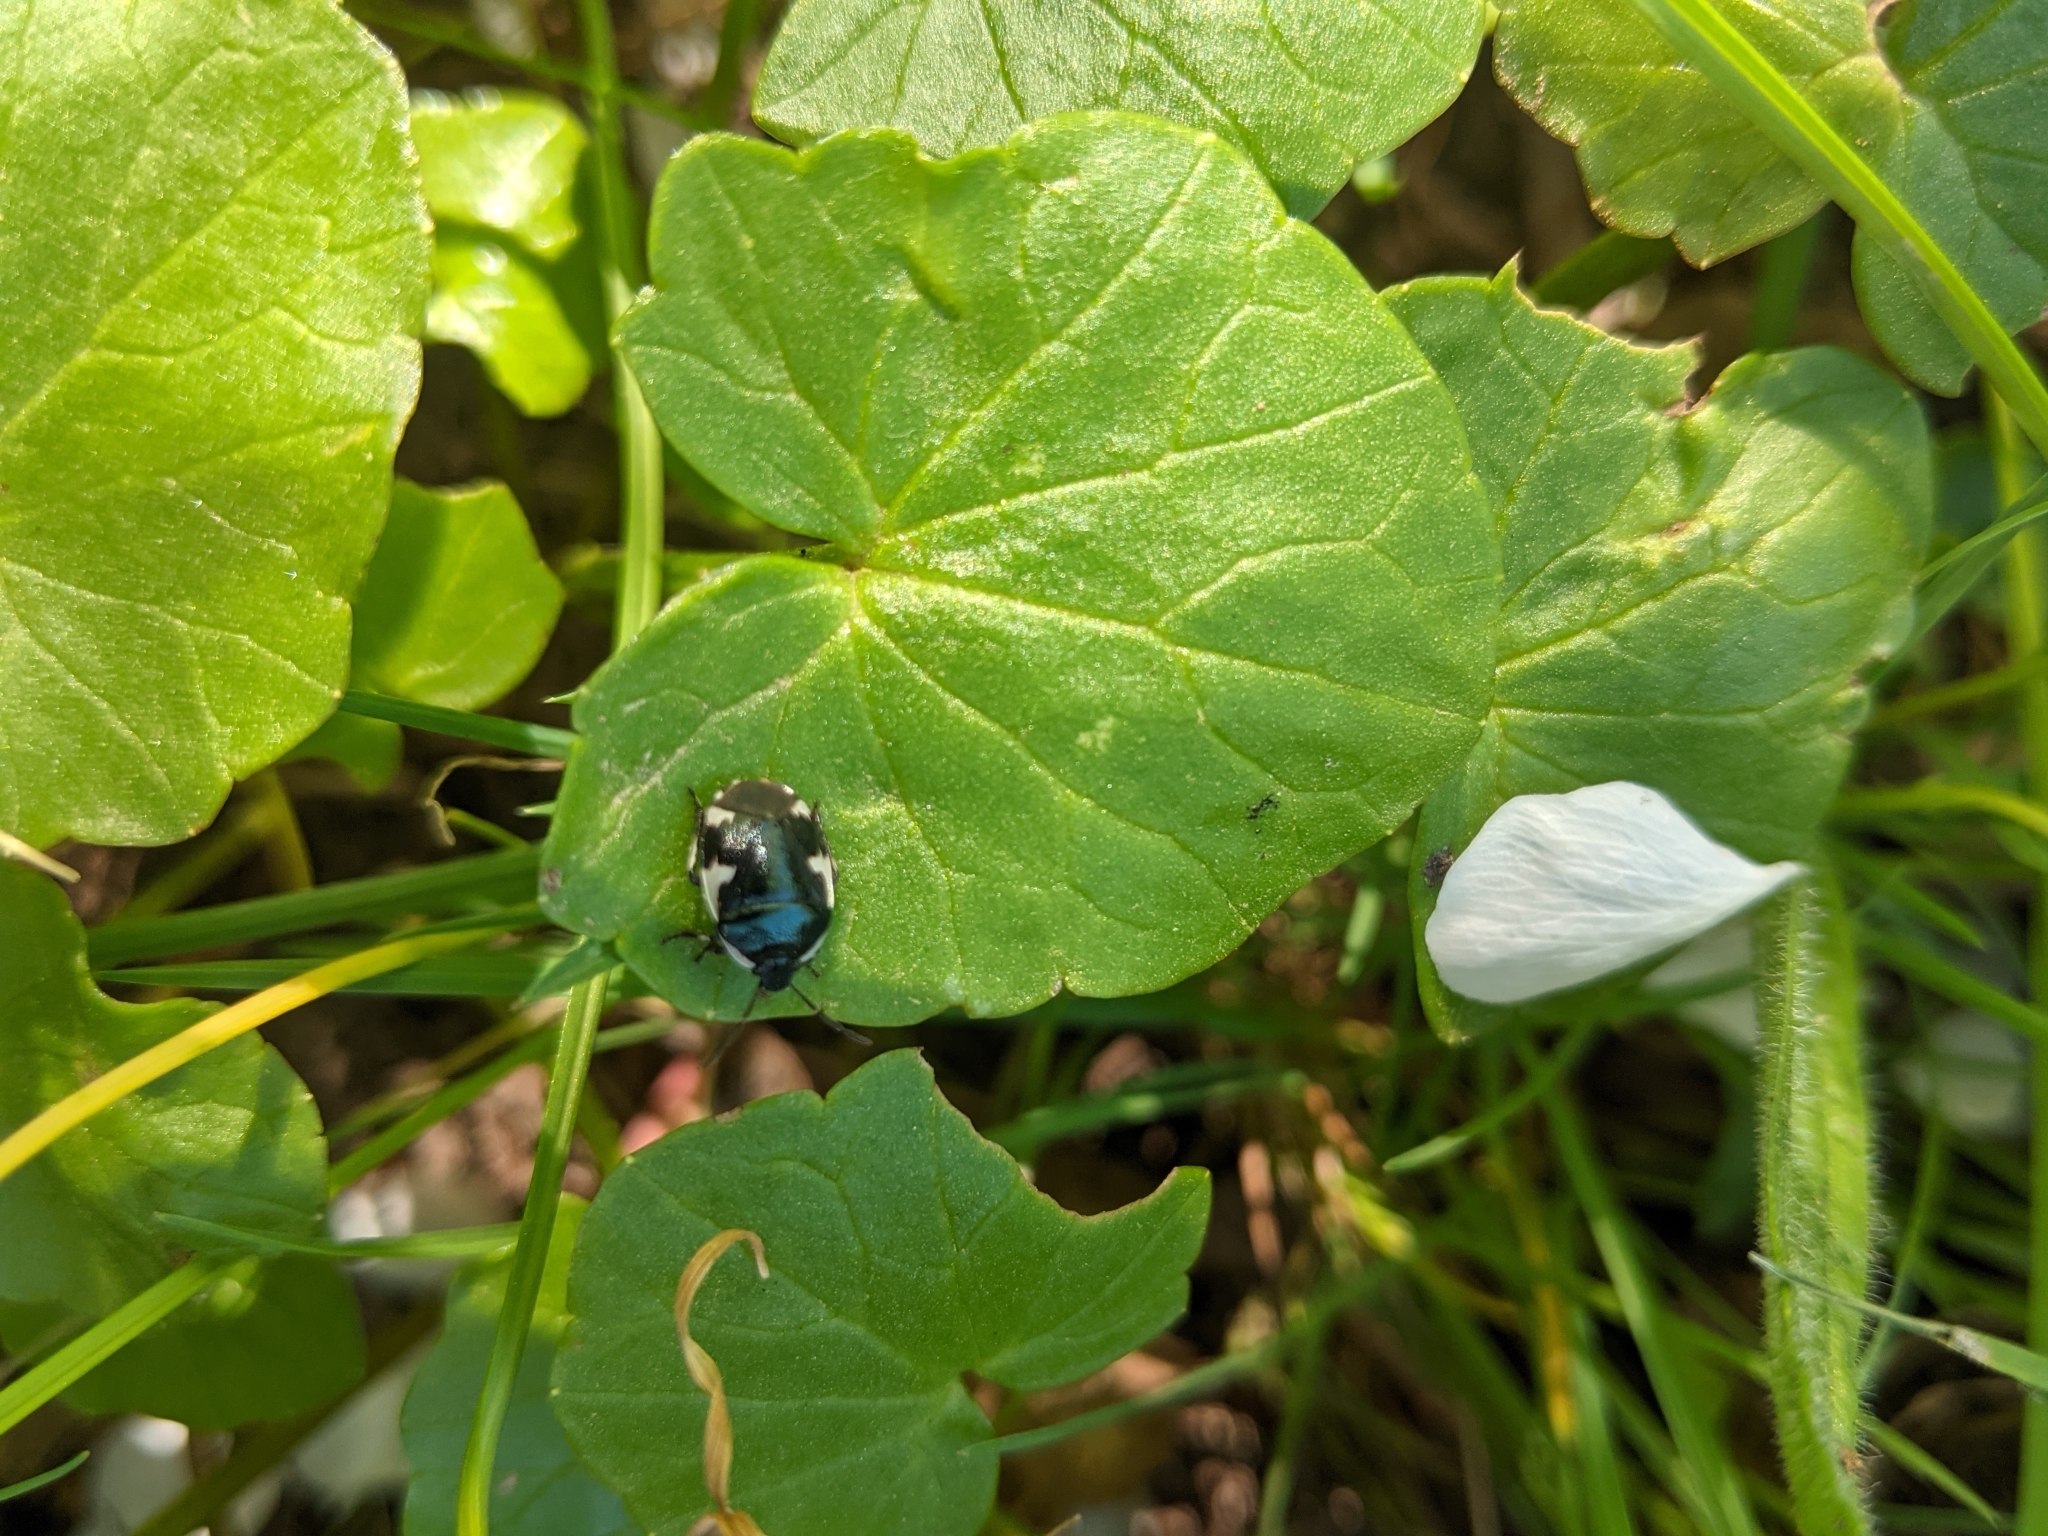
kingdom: Animalia
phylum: Arthropoda
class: Insecta
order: Hemiptera
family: Cydnidae
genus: Tritomegas
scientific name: Tritomegas sexmaculatus
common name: Rambur's pied shieldbug
